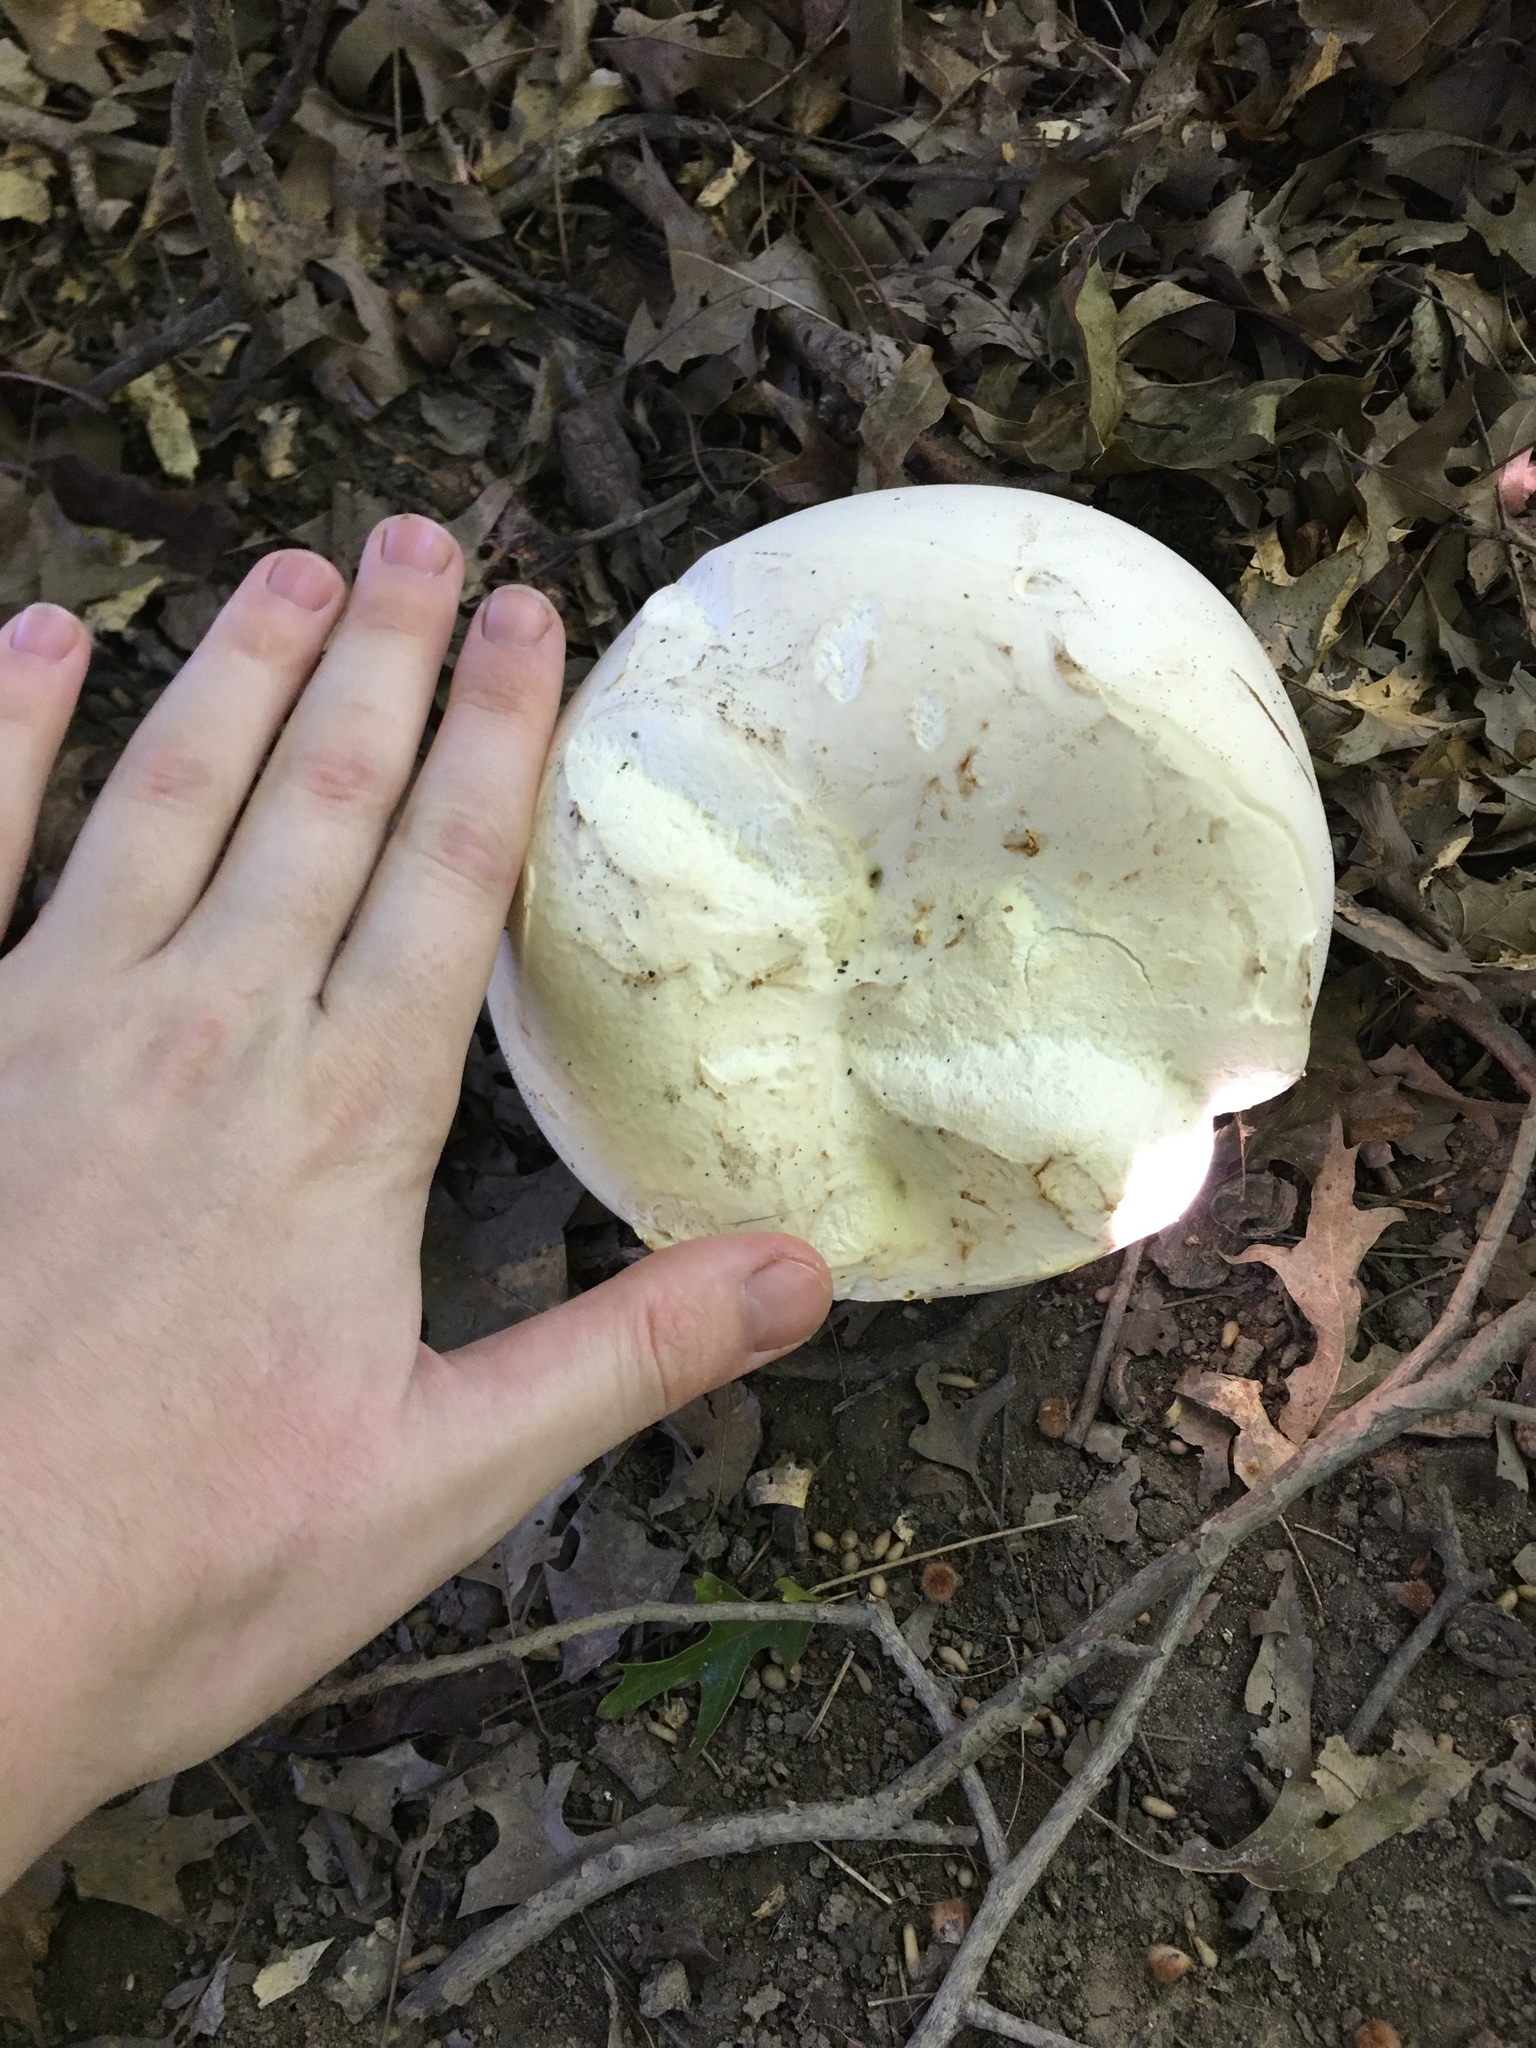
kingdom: Fungi
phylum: Basidiomycota
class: Agaricomycetes
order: Agaricales
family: Lycoperdaceae
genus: Calvatia
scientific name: Calvatia gigantea
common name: Giant puffball
